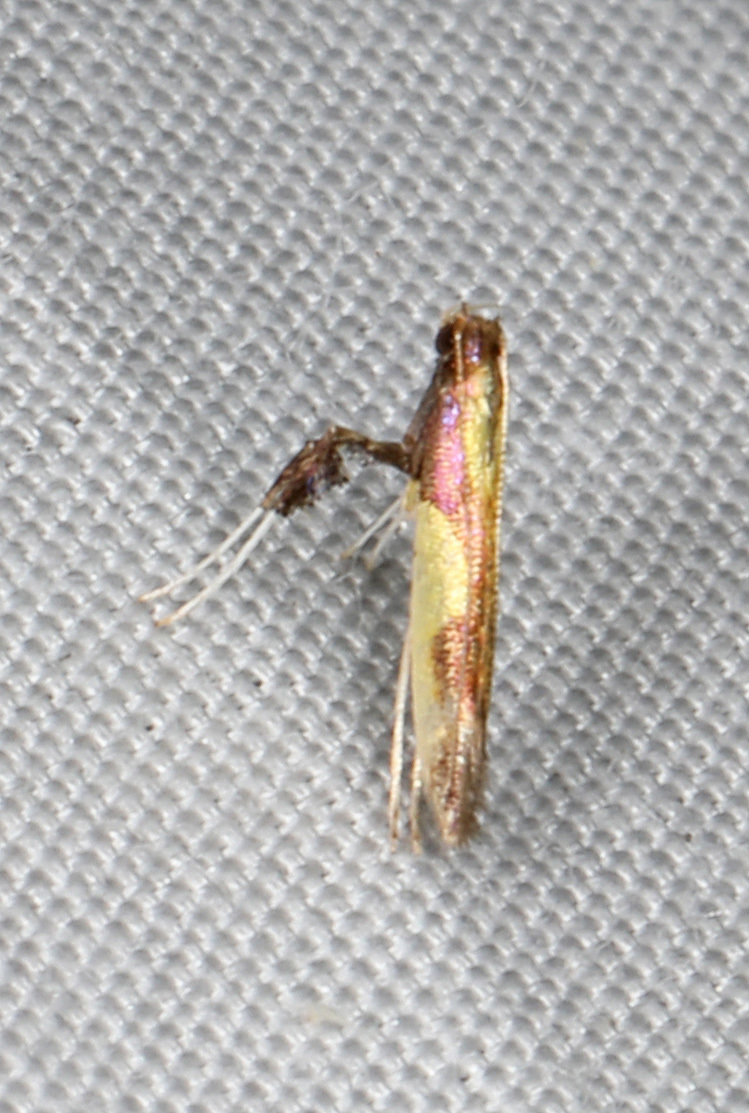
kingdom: Animalia
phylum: Arthropoda
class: Insecta
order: Lepidoptera
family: Gracillariidae
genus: Caloptilia
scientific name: Caloptilia bimaculatella
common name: Maple caloptilia moth
